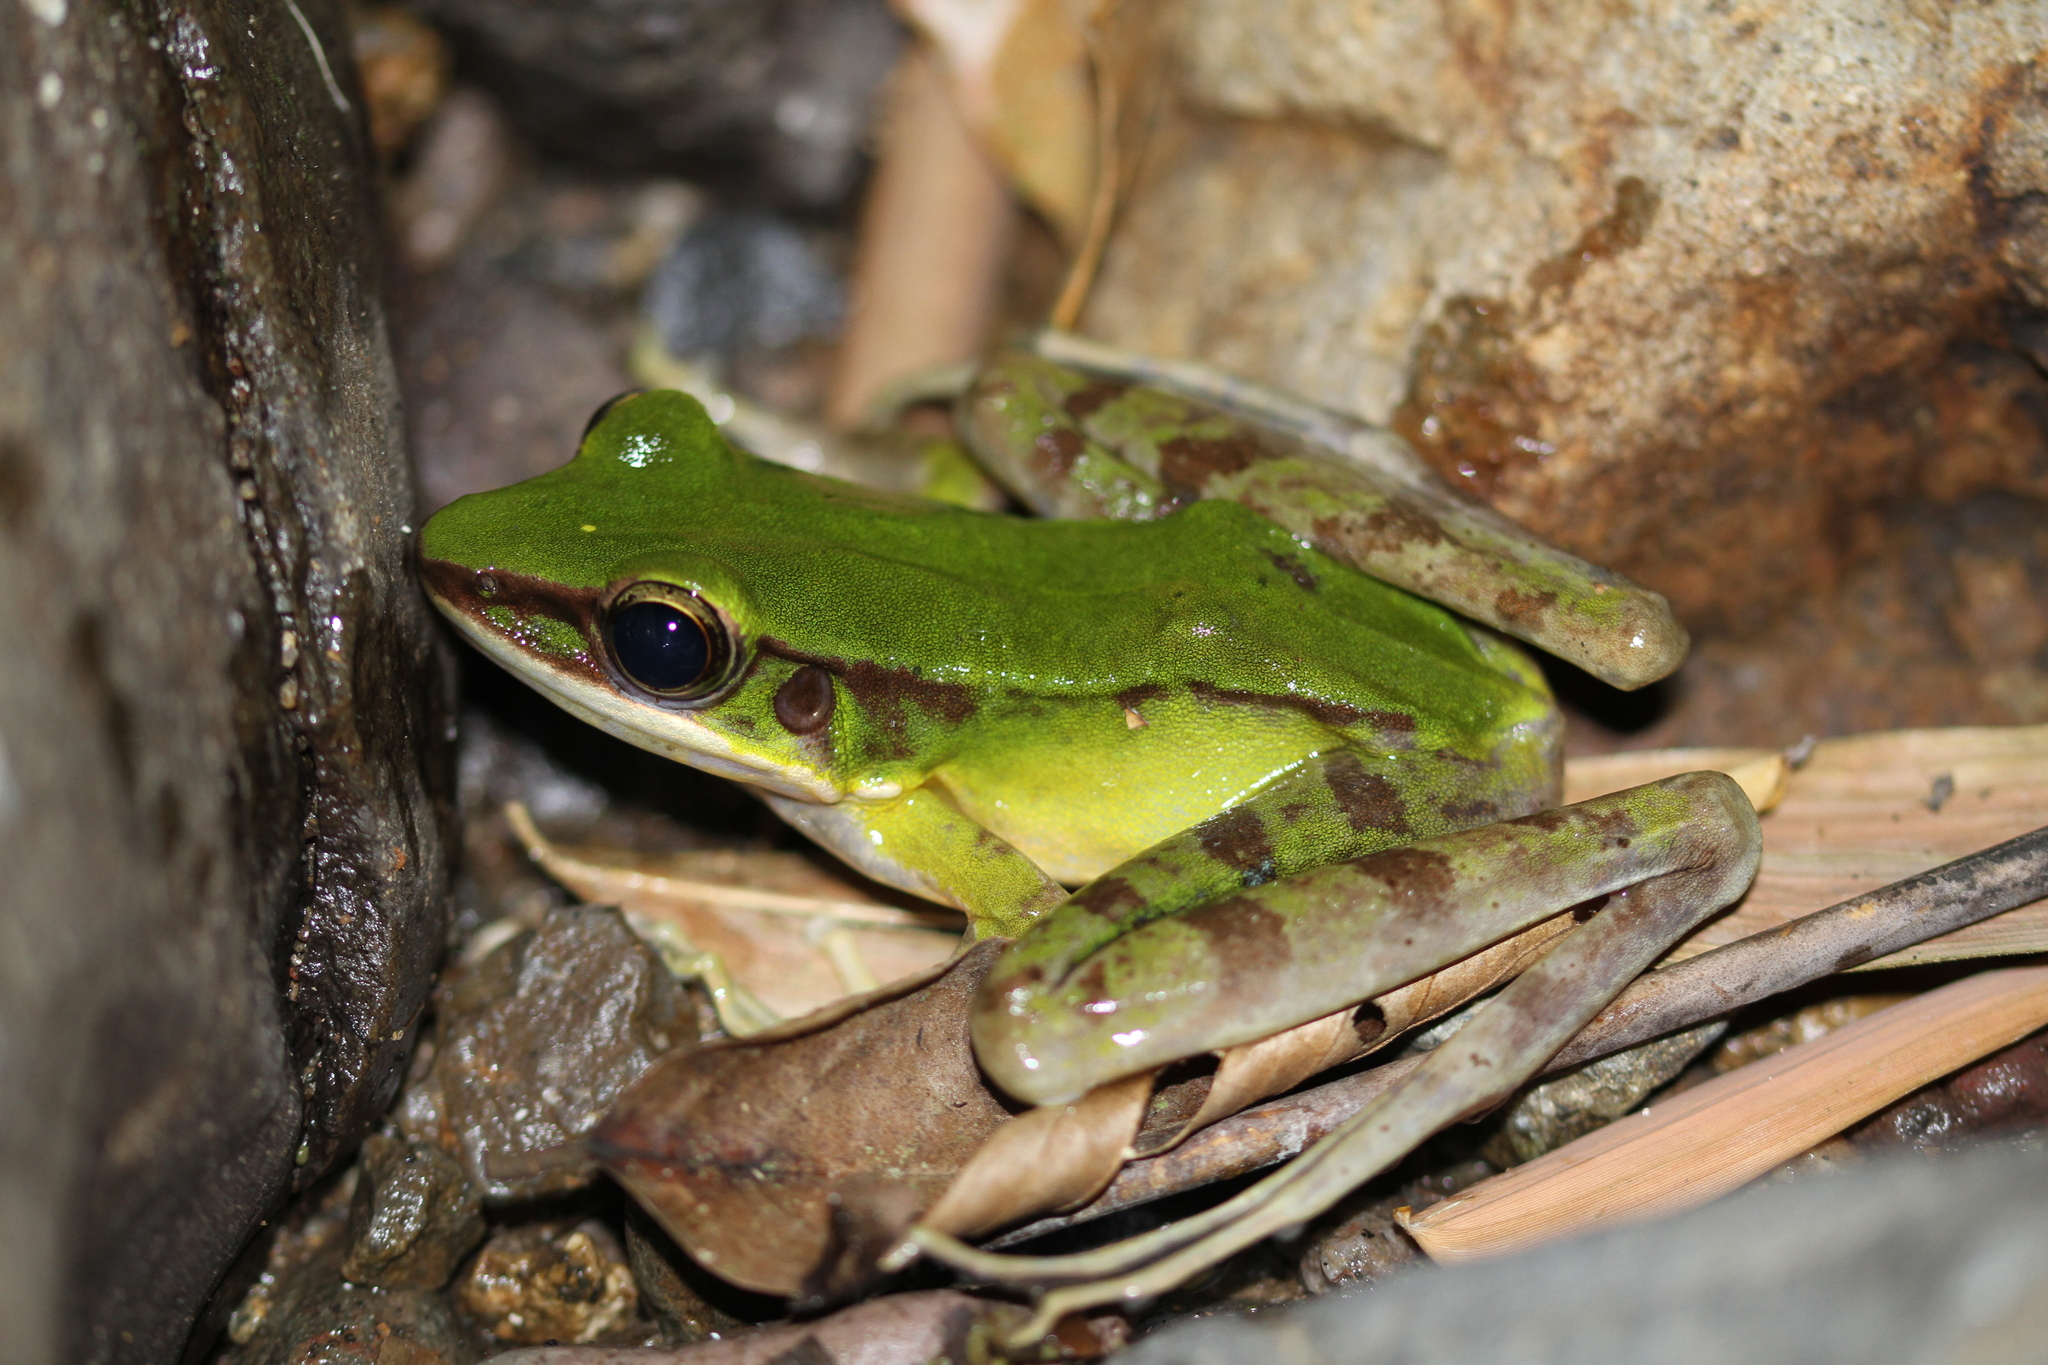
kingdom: Animalia
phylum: Chordata
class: Amphibia
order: Anura
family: Ranidae
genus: Odorrana
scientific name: Odorrana hosii
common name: Green tree frog
